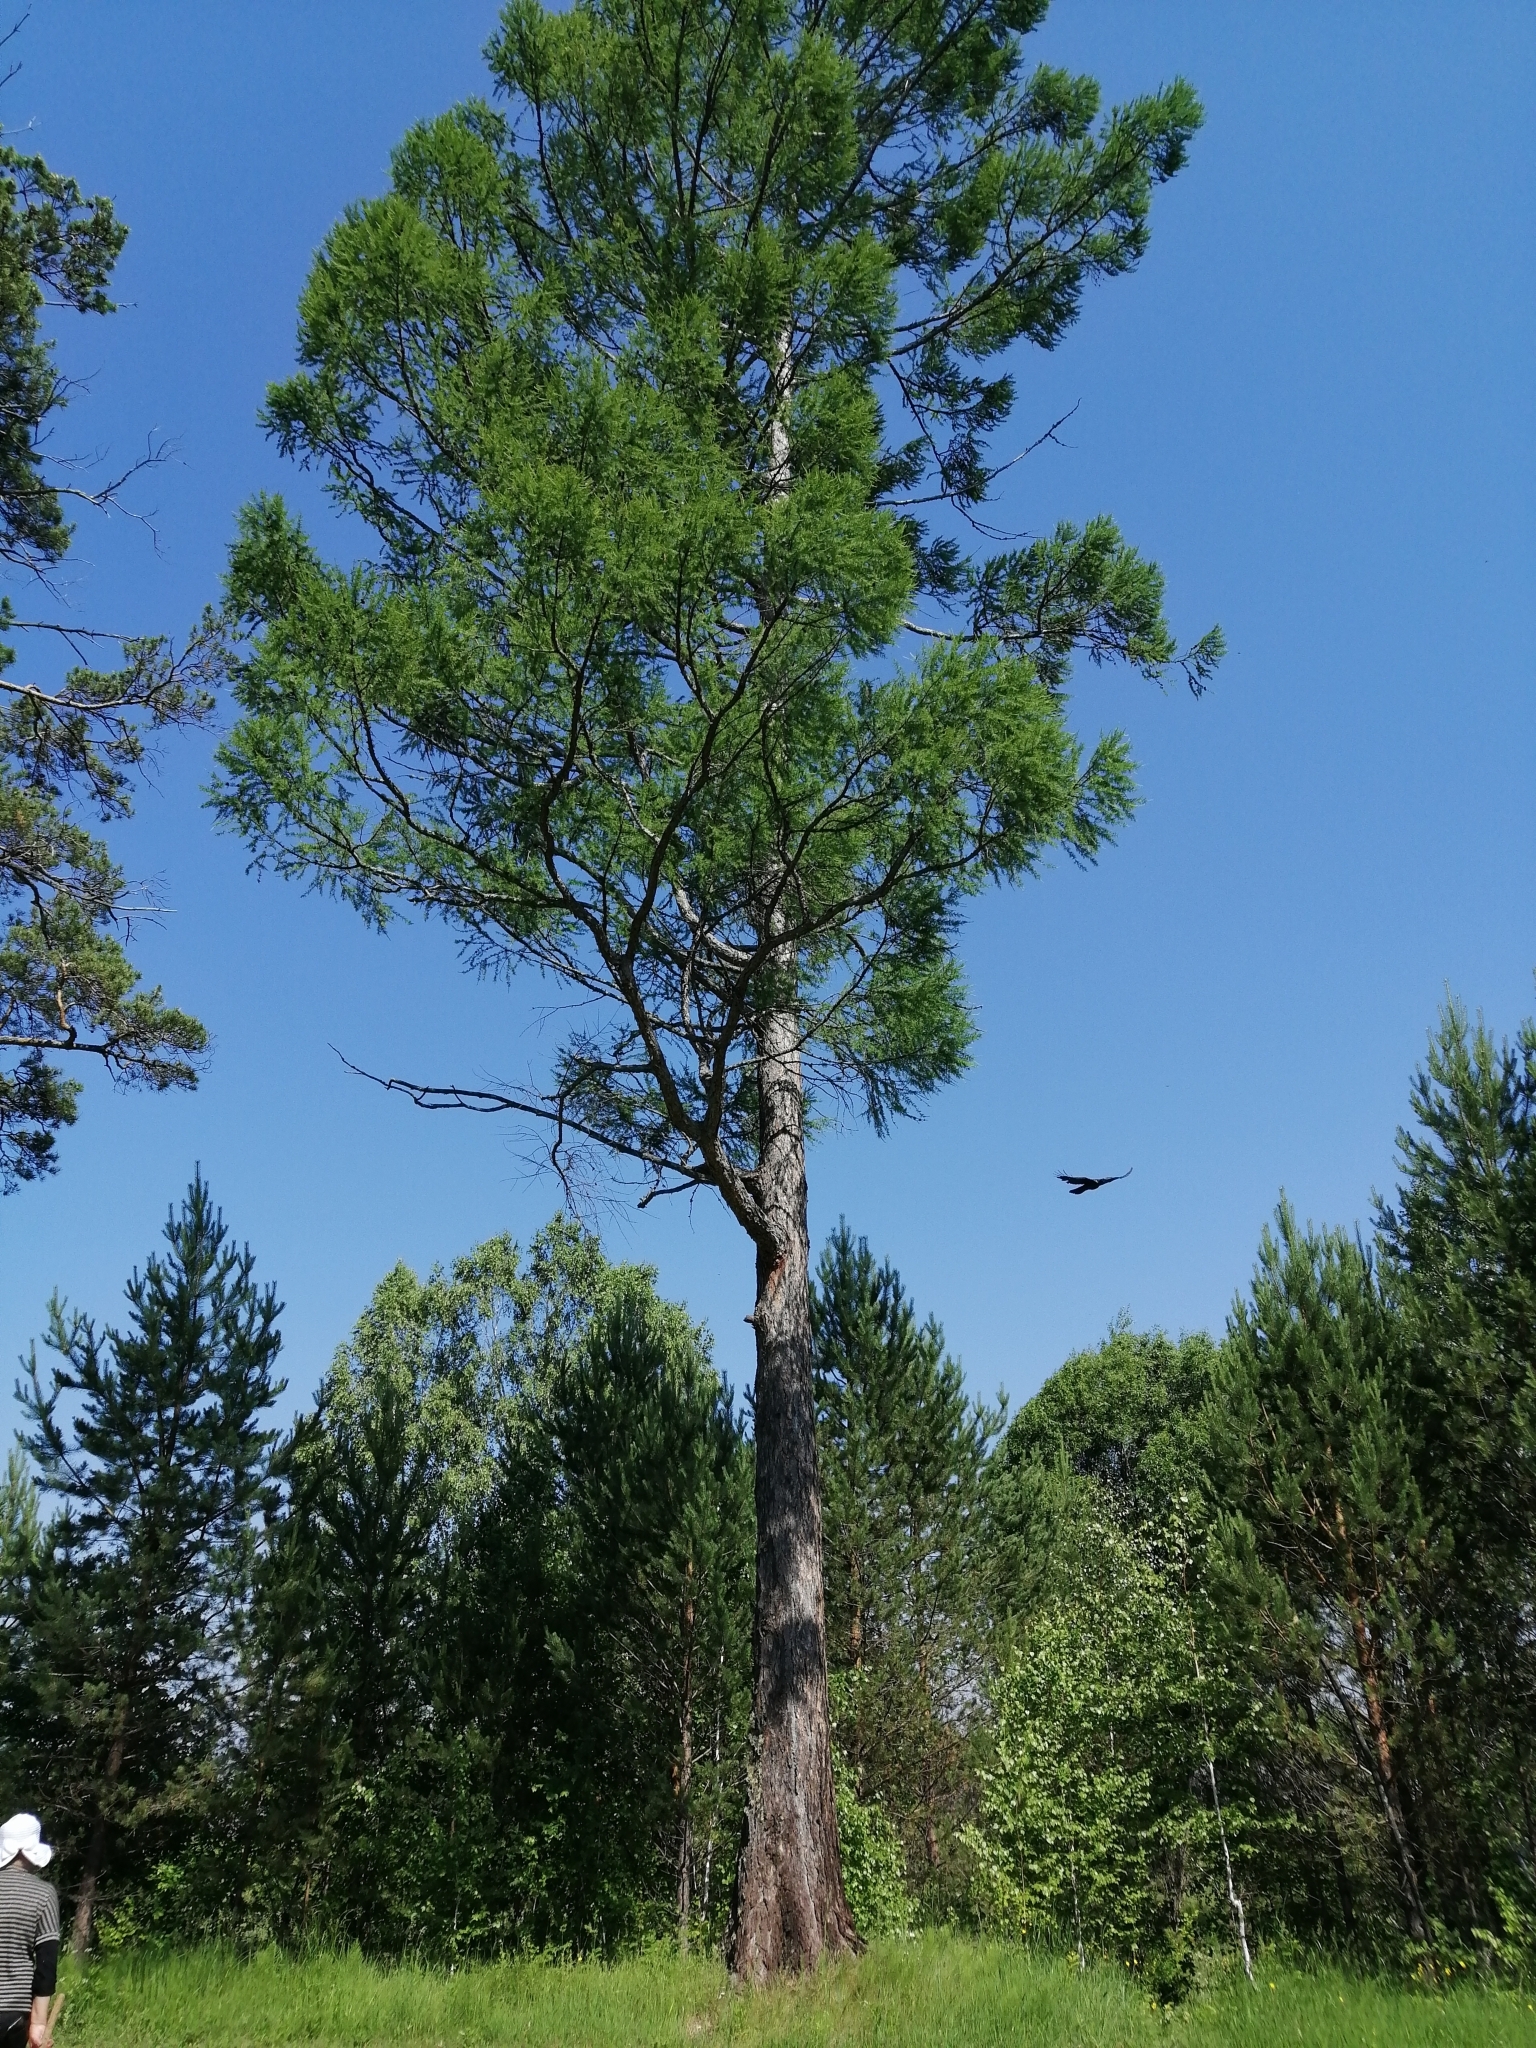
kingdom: Plantae
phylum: Tracheophyta
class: Pinopsida
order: Pinales
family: Pinaceae
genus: Larix
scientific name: Larix sibirica
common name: Siberian larch
